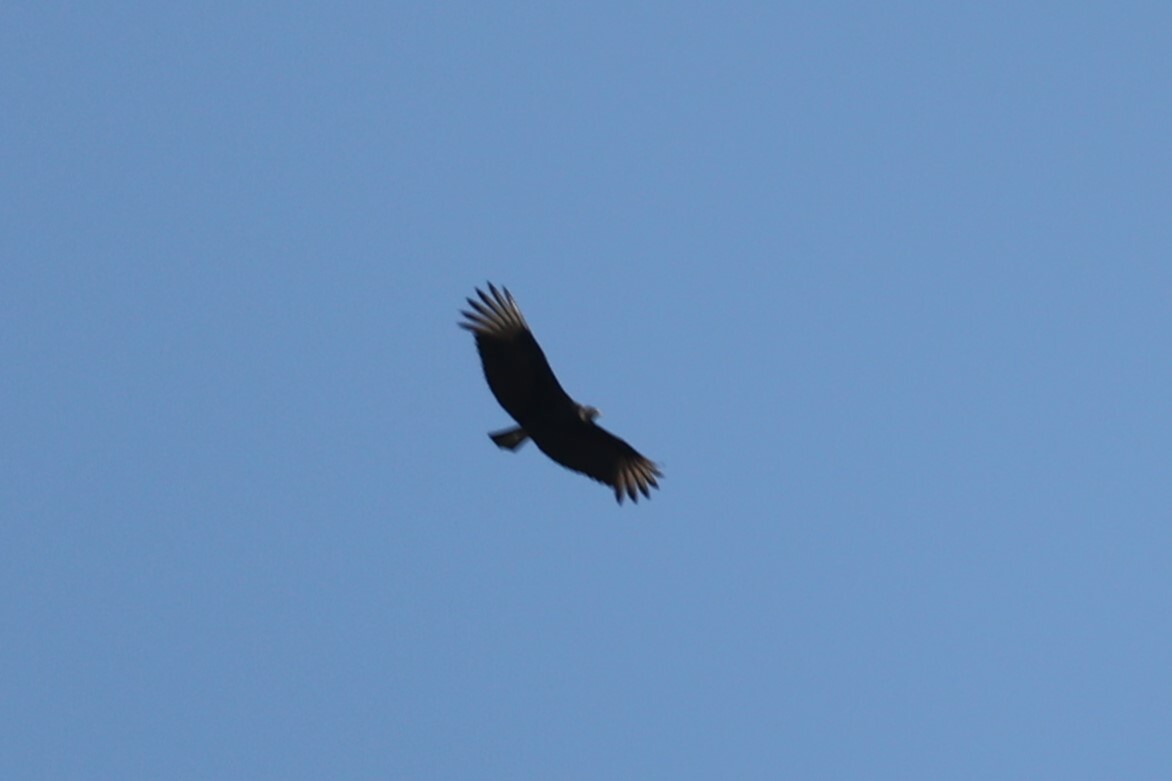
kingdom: Animalia
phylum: Chordata
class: Aves
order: Accipitriformes
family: Cathartidae
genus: Coragyps
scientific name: Coragyps atratus
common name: Black vulture
